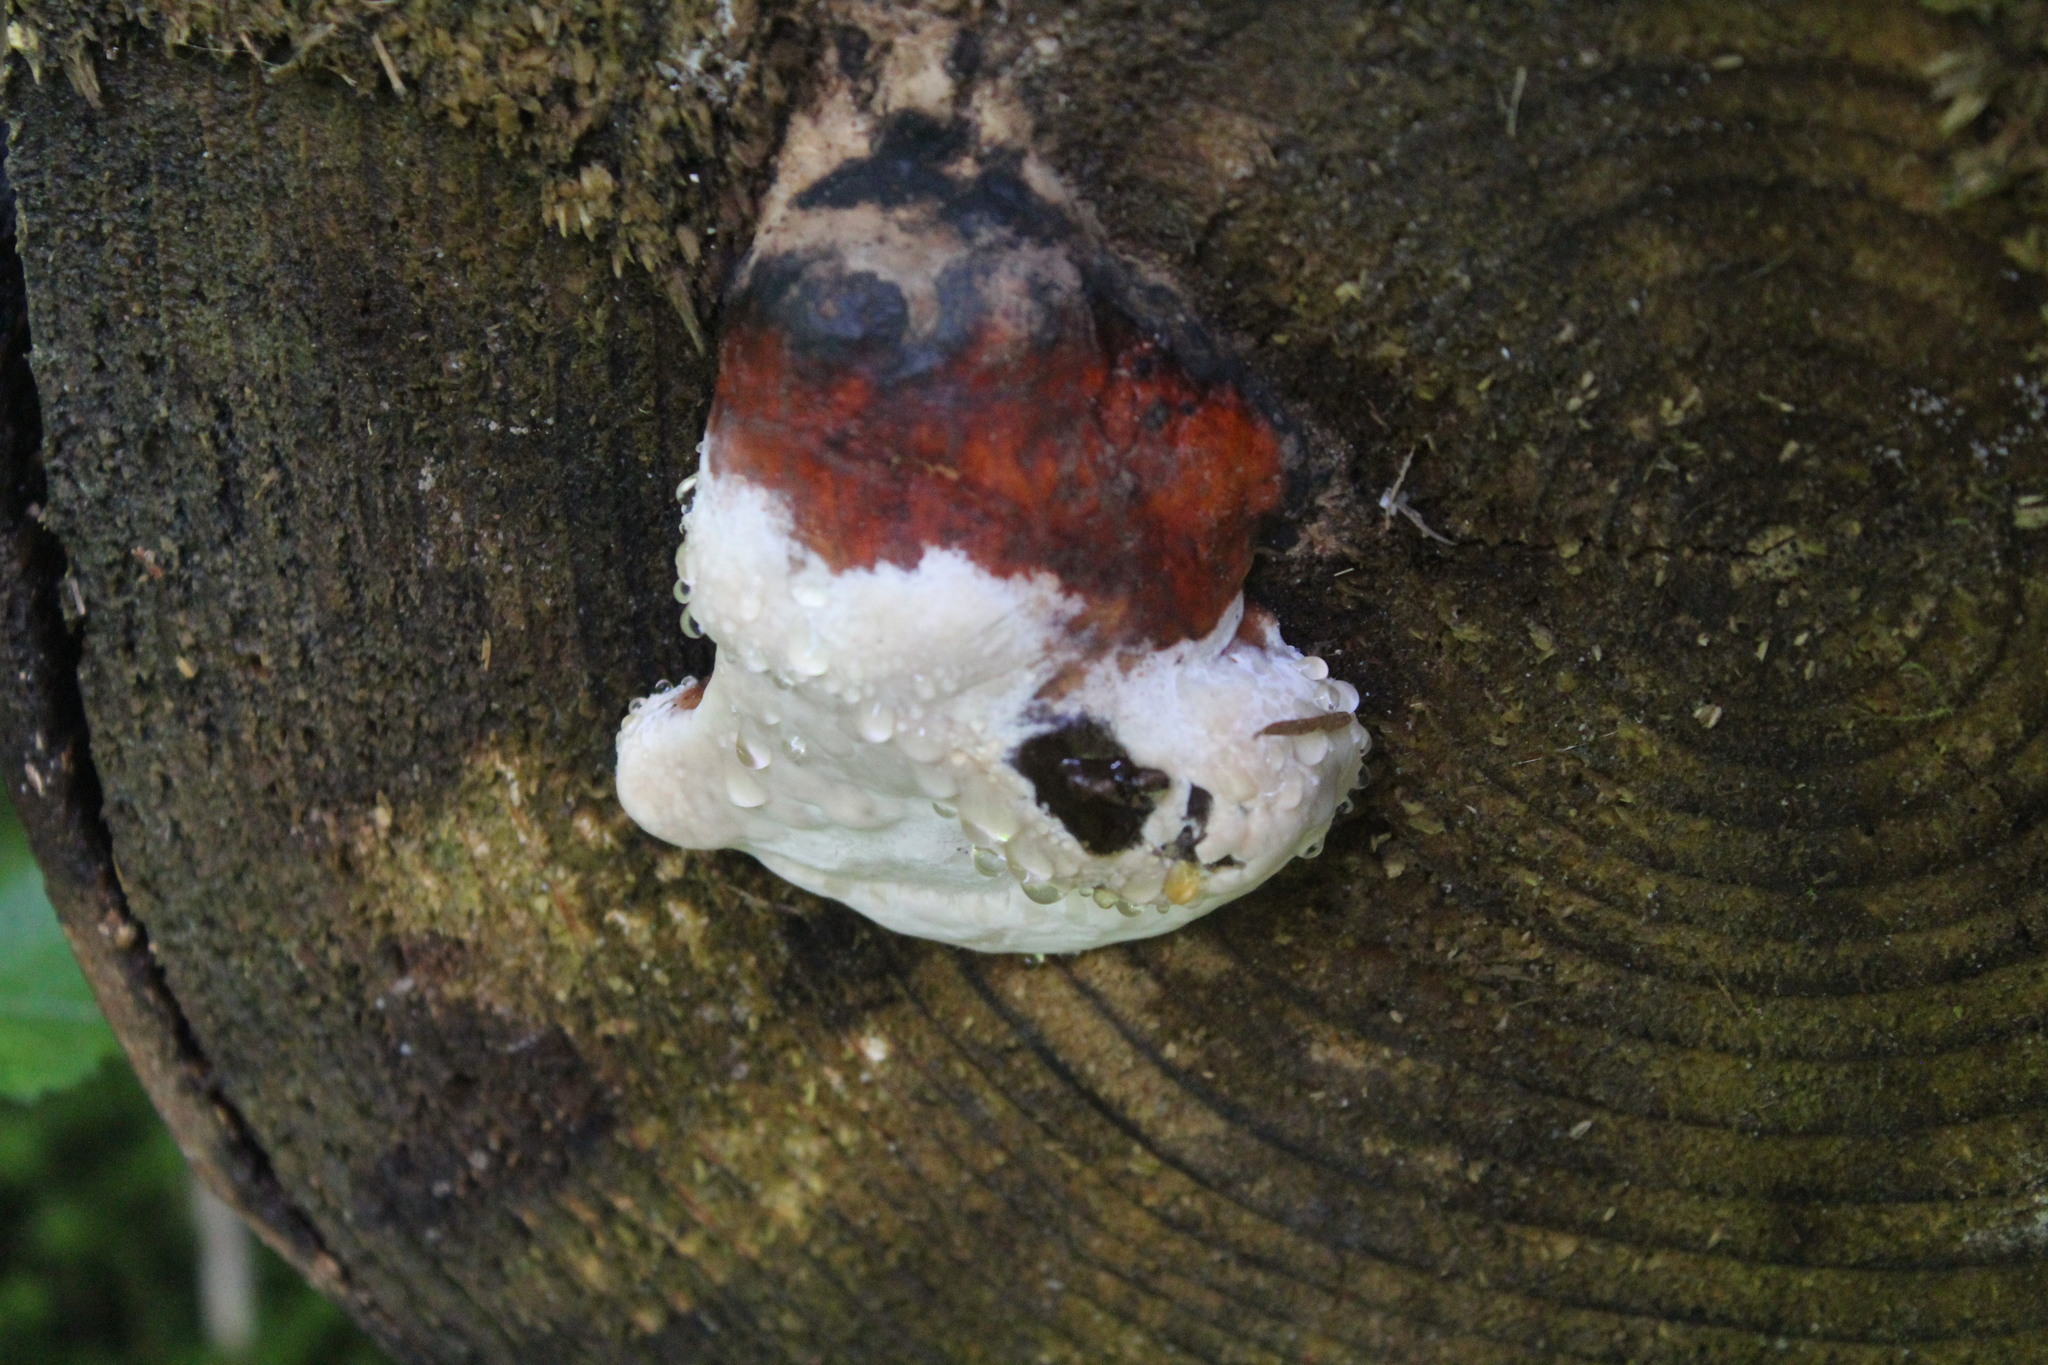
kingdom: Fungi
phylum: Basidiomycota
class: Agaricomycetes
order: Polyporales
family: Fomitopsidaceae
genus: Fomitopsis
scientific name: Fomitopsis mounceae
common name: Northern red belt
